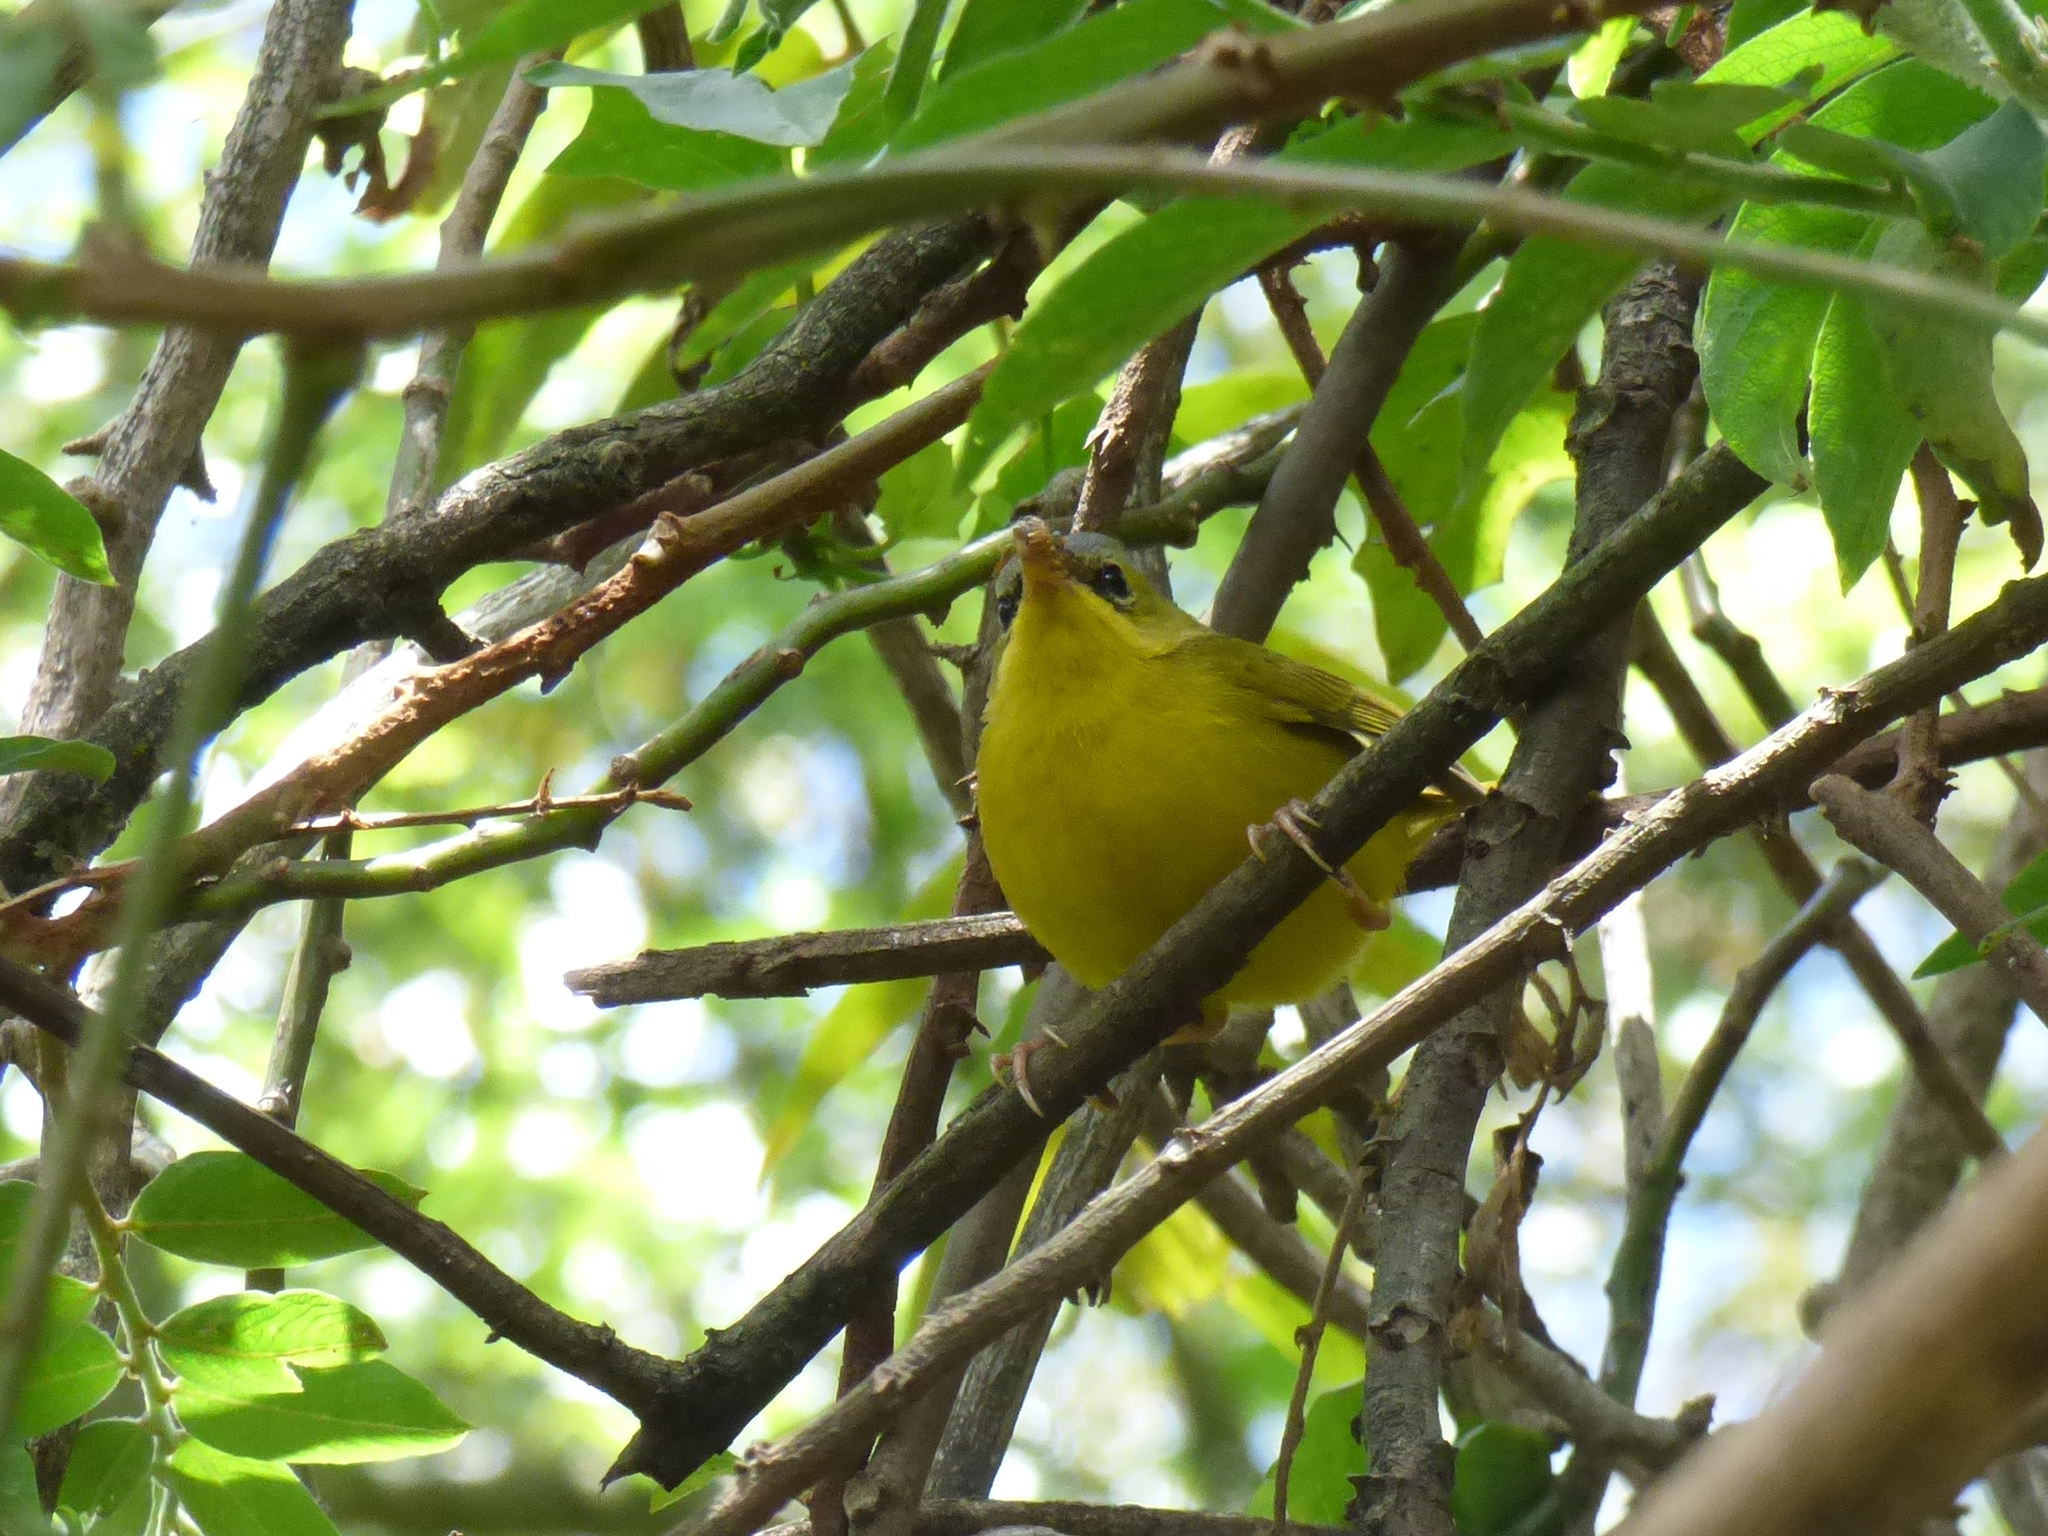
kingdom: Animalia
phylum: Chordata
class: Aves
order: Passeriformes
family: Parulidae
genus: Geothlypis
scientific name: Geothlypis auricularis
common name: Black-lored yellowthroat
